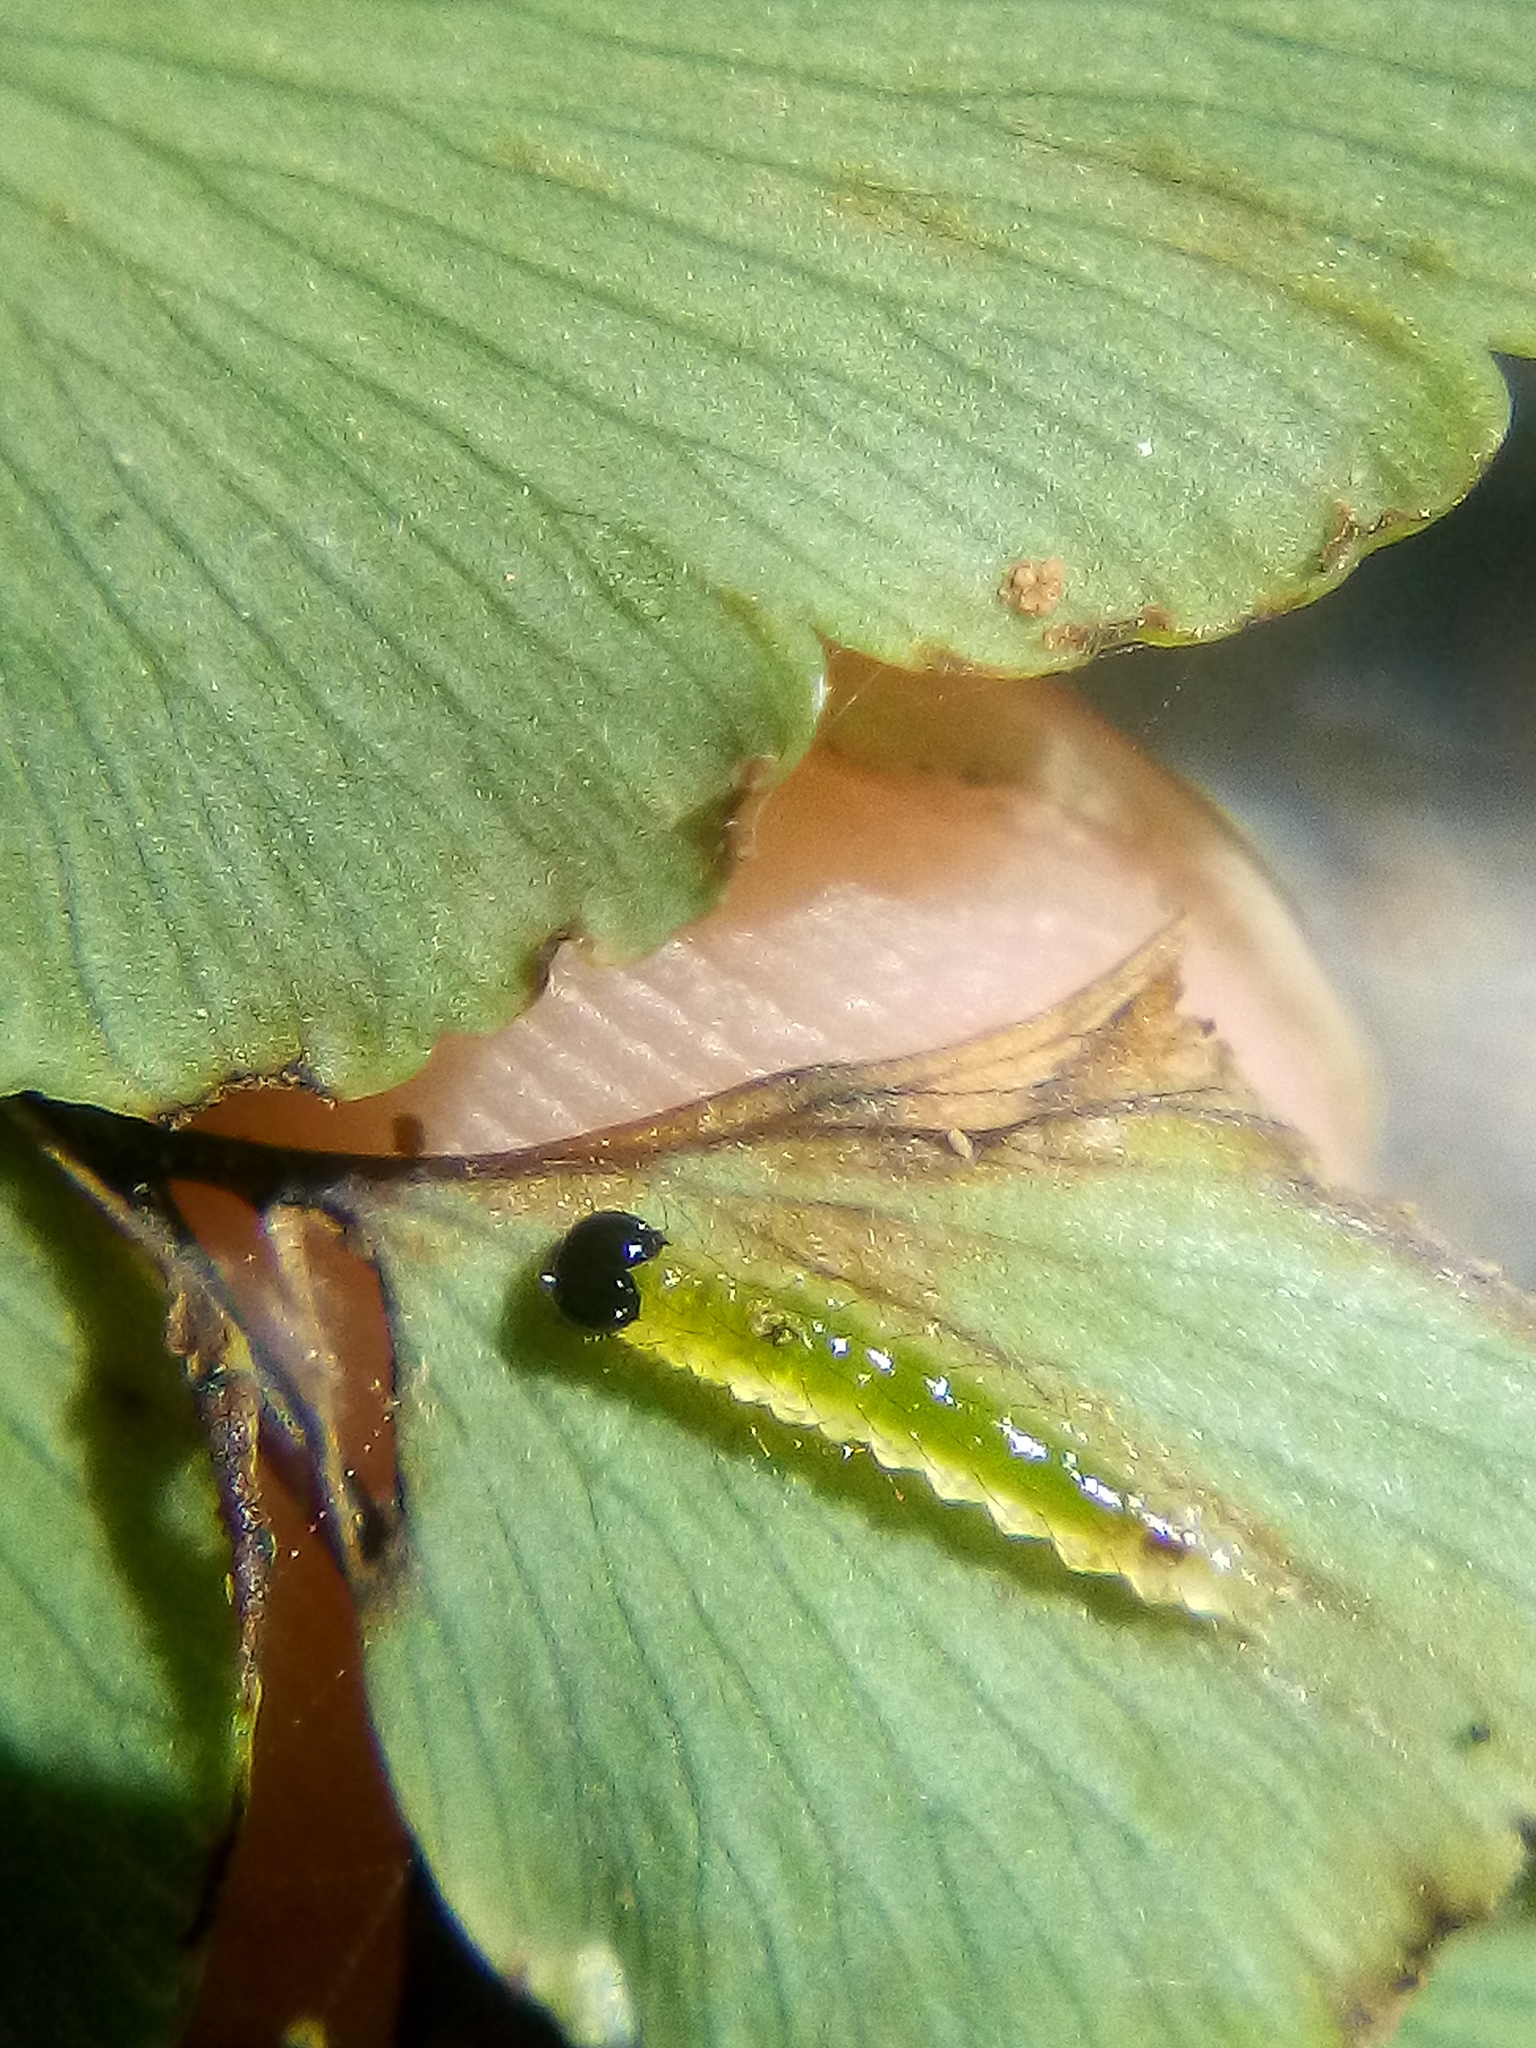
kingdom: Animalia
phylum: Arthropoda
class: Insecta
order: Lepidoptera
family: Pyralidae
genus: Musotima
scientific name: Musotima aduncalis
